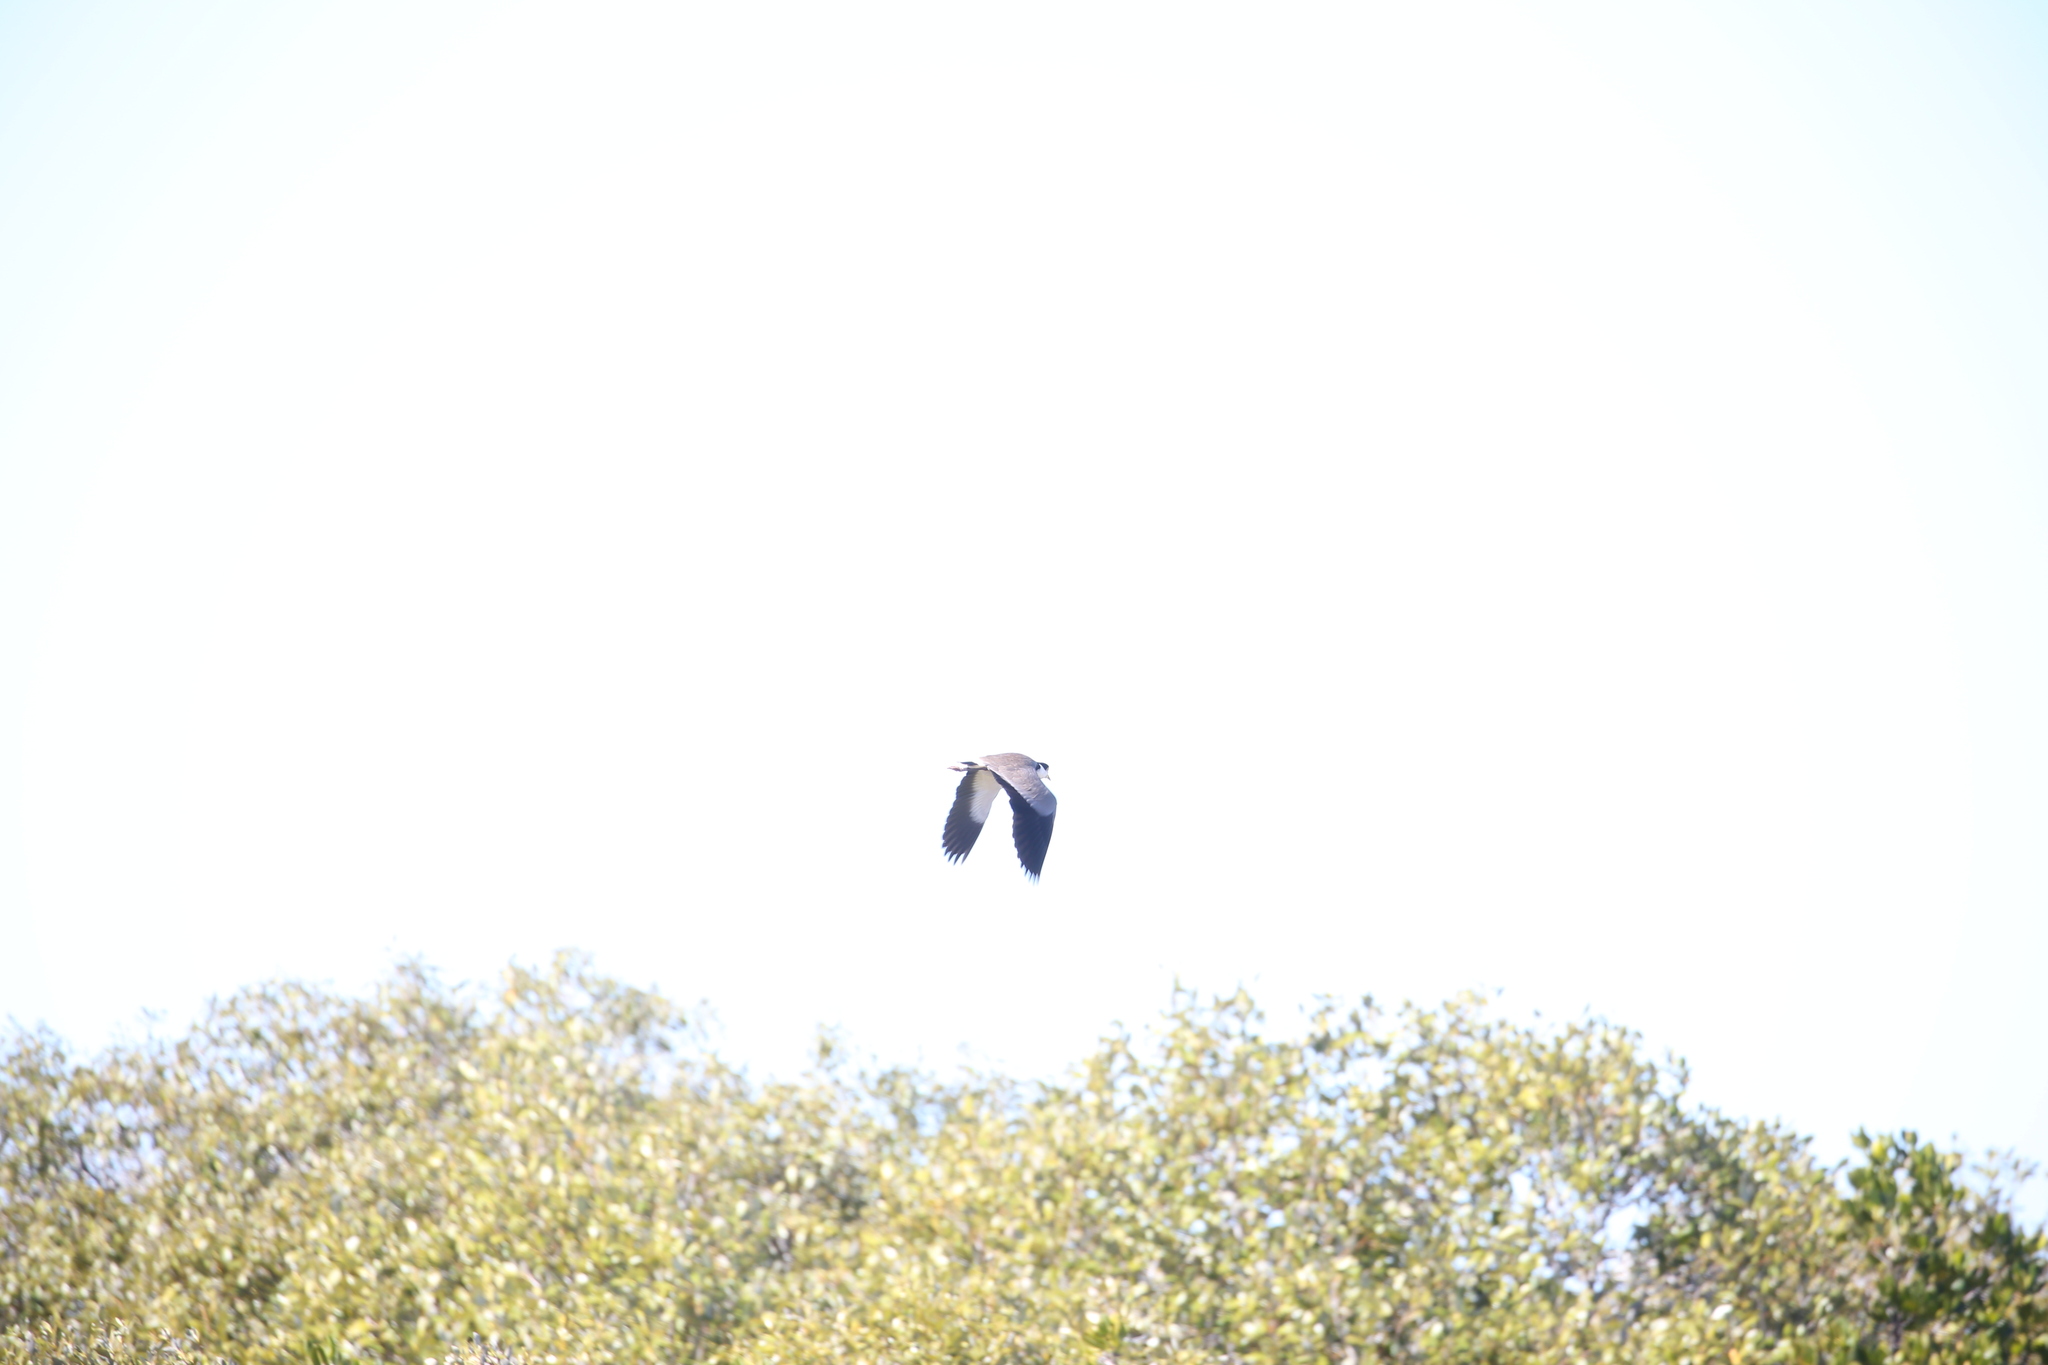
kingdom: Animalia
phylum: Chordata
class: Aves
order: Charadriiformes
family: Charadriidae
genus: Vanellus
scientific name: Vanellus miles
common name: Masked lapwing
